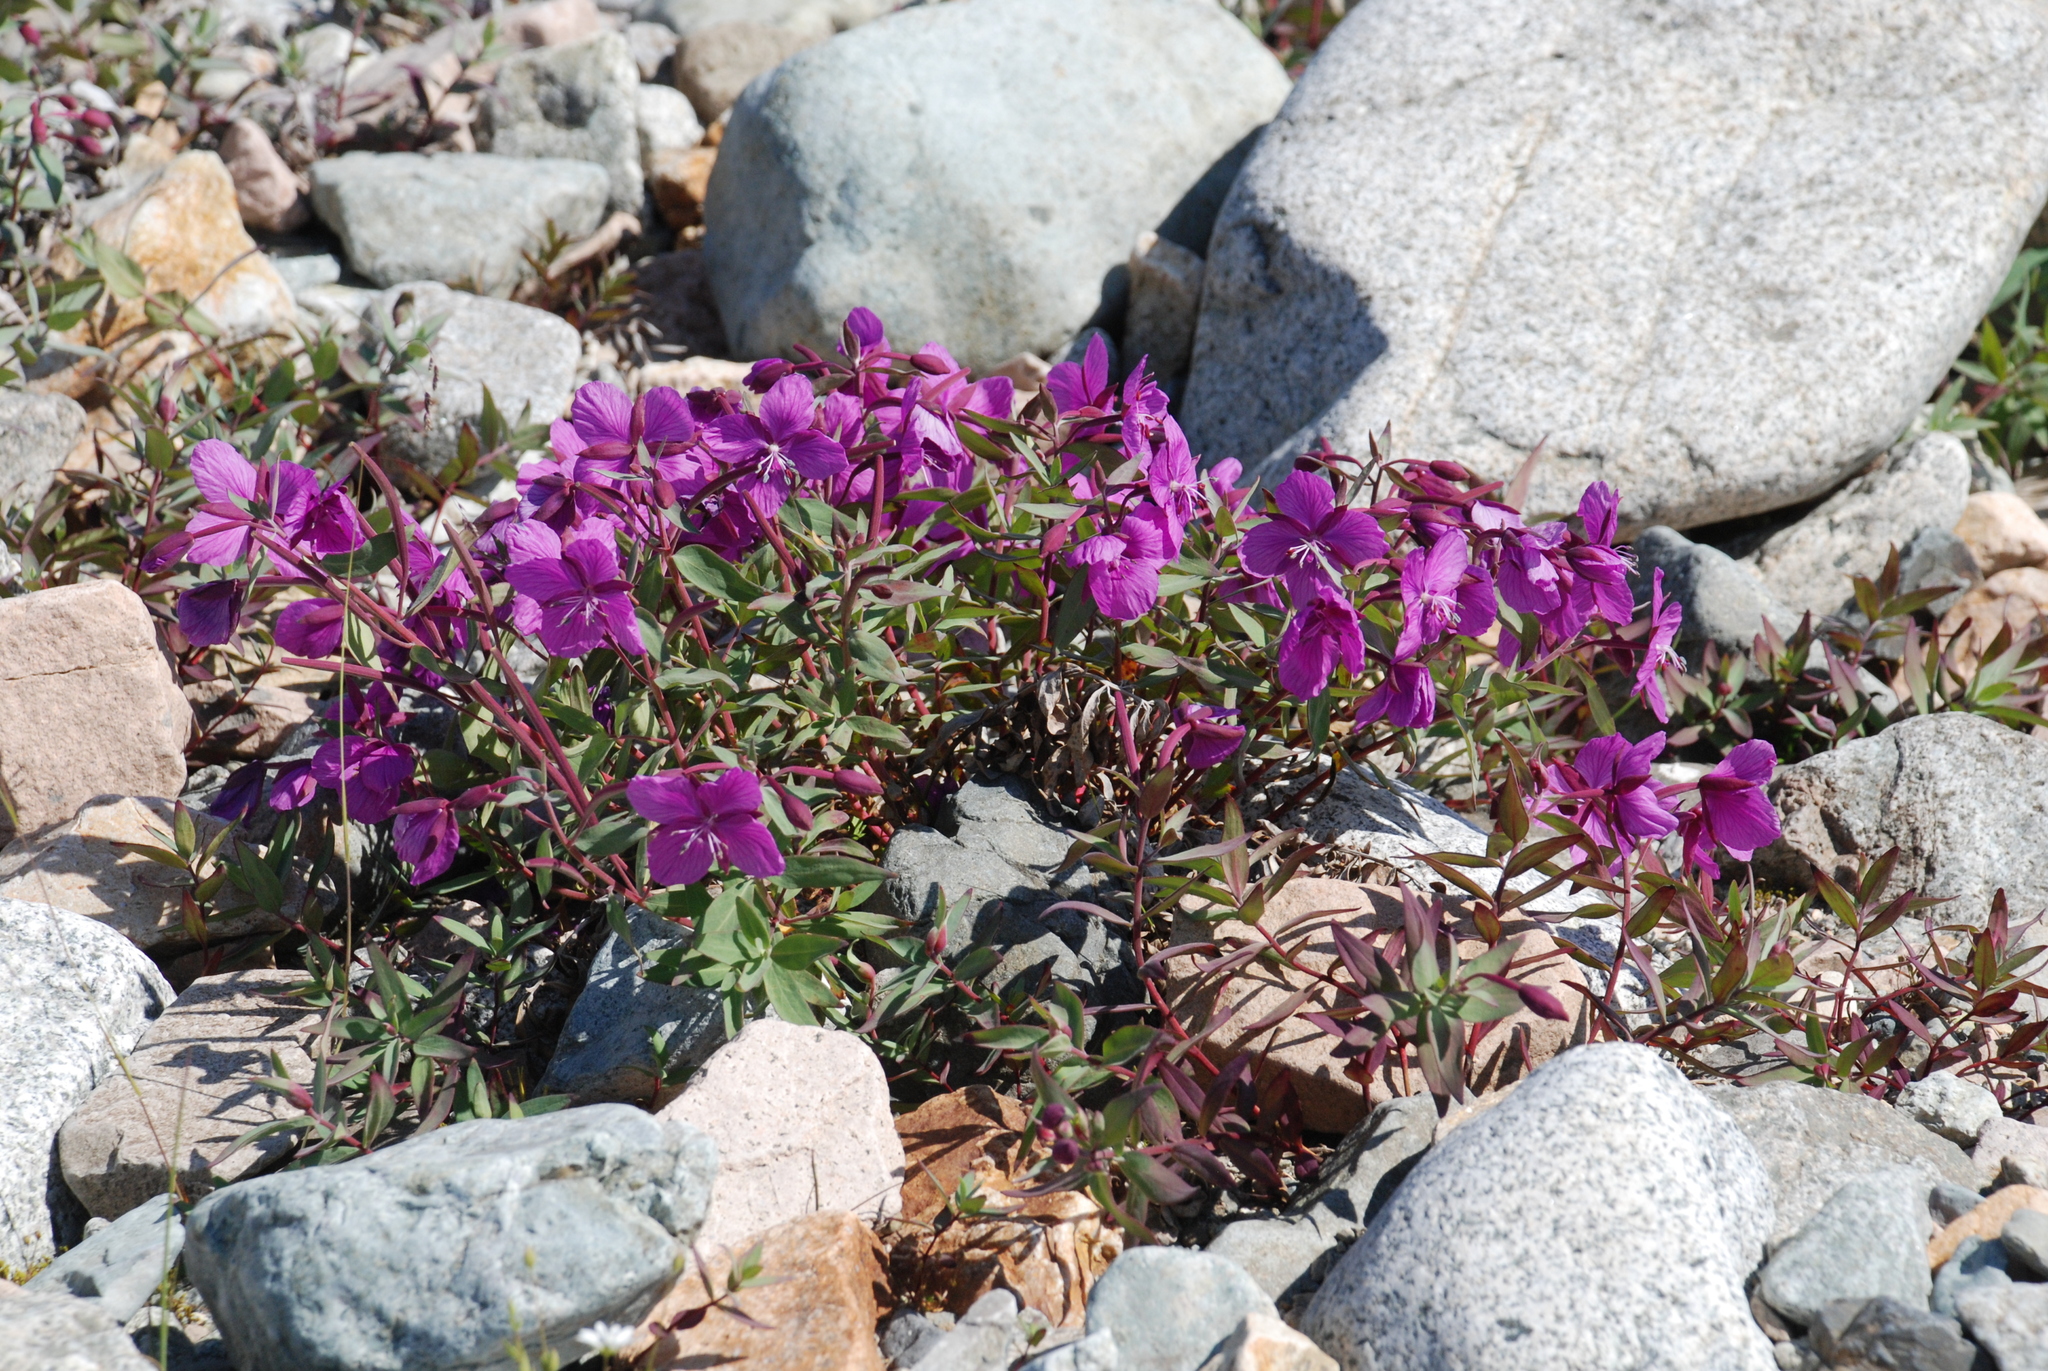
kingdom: Plantae
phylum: Tracheophyta
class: Magnoliopsida
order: Myrtales
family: Onagraceae
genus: Chamaenerion
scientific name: Chamaenerion latifolium
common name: Dwarf fireweed
